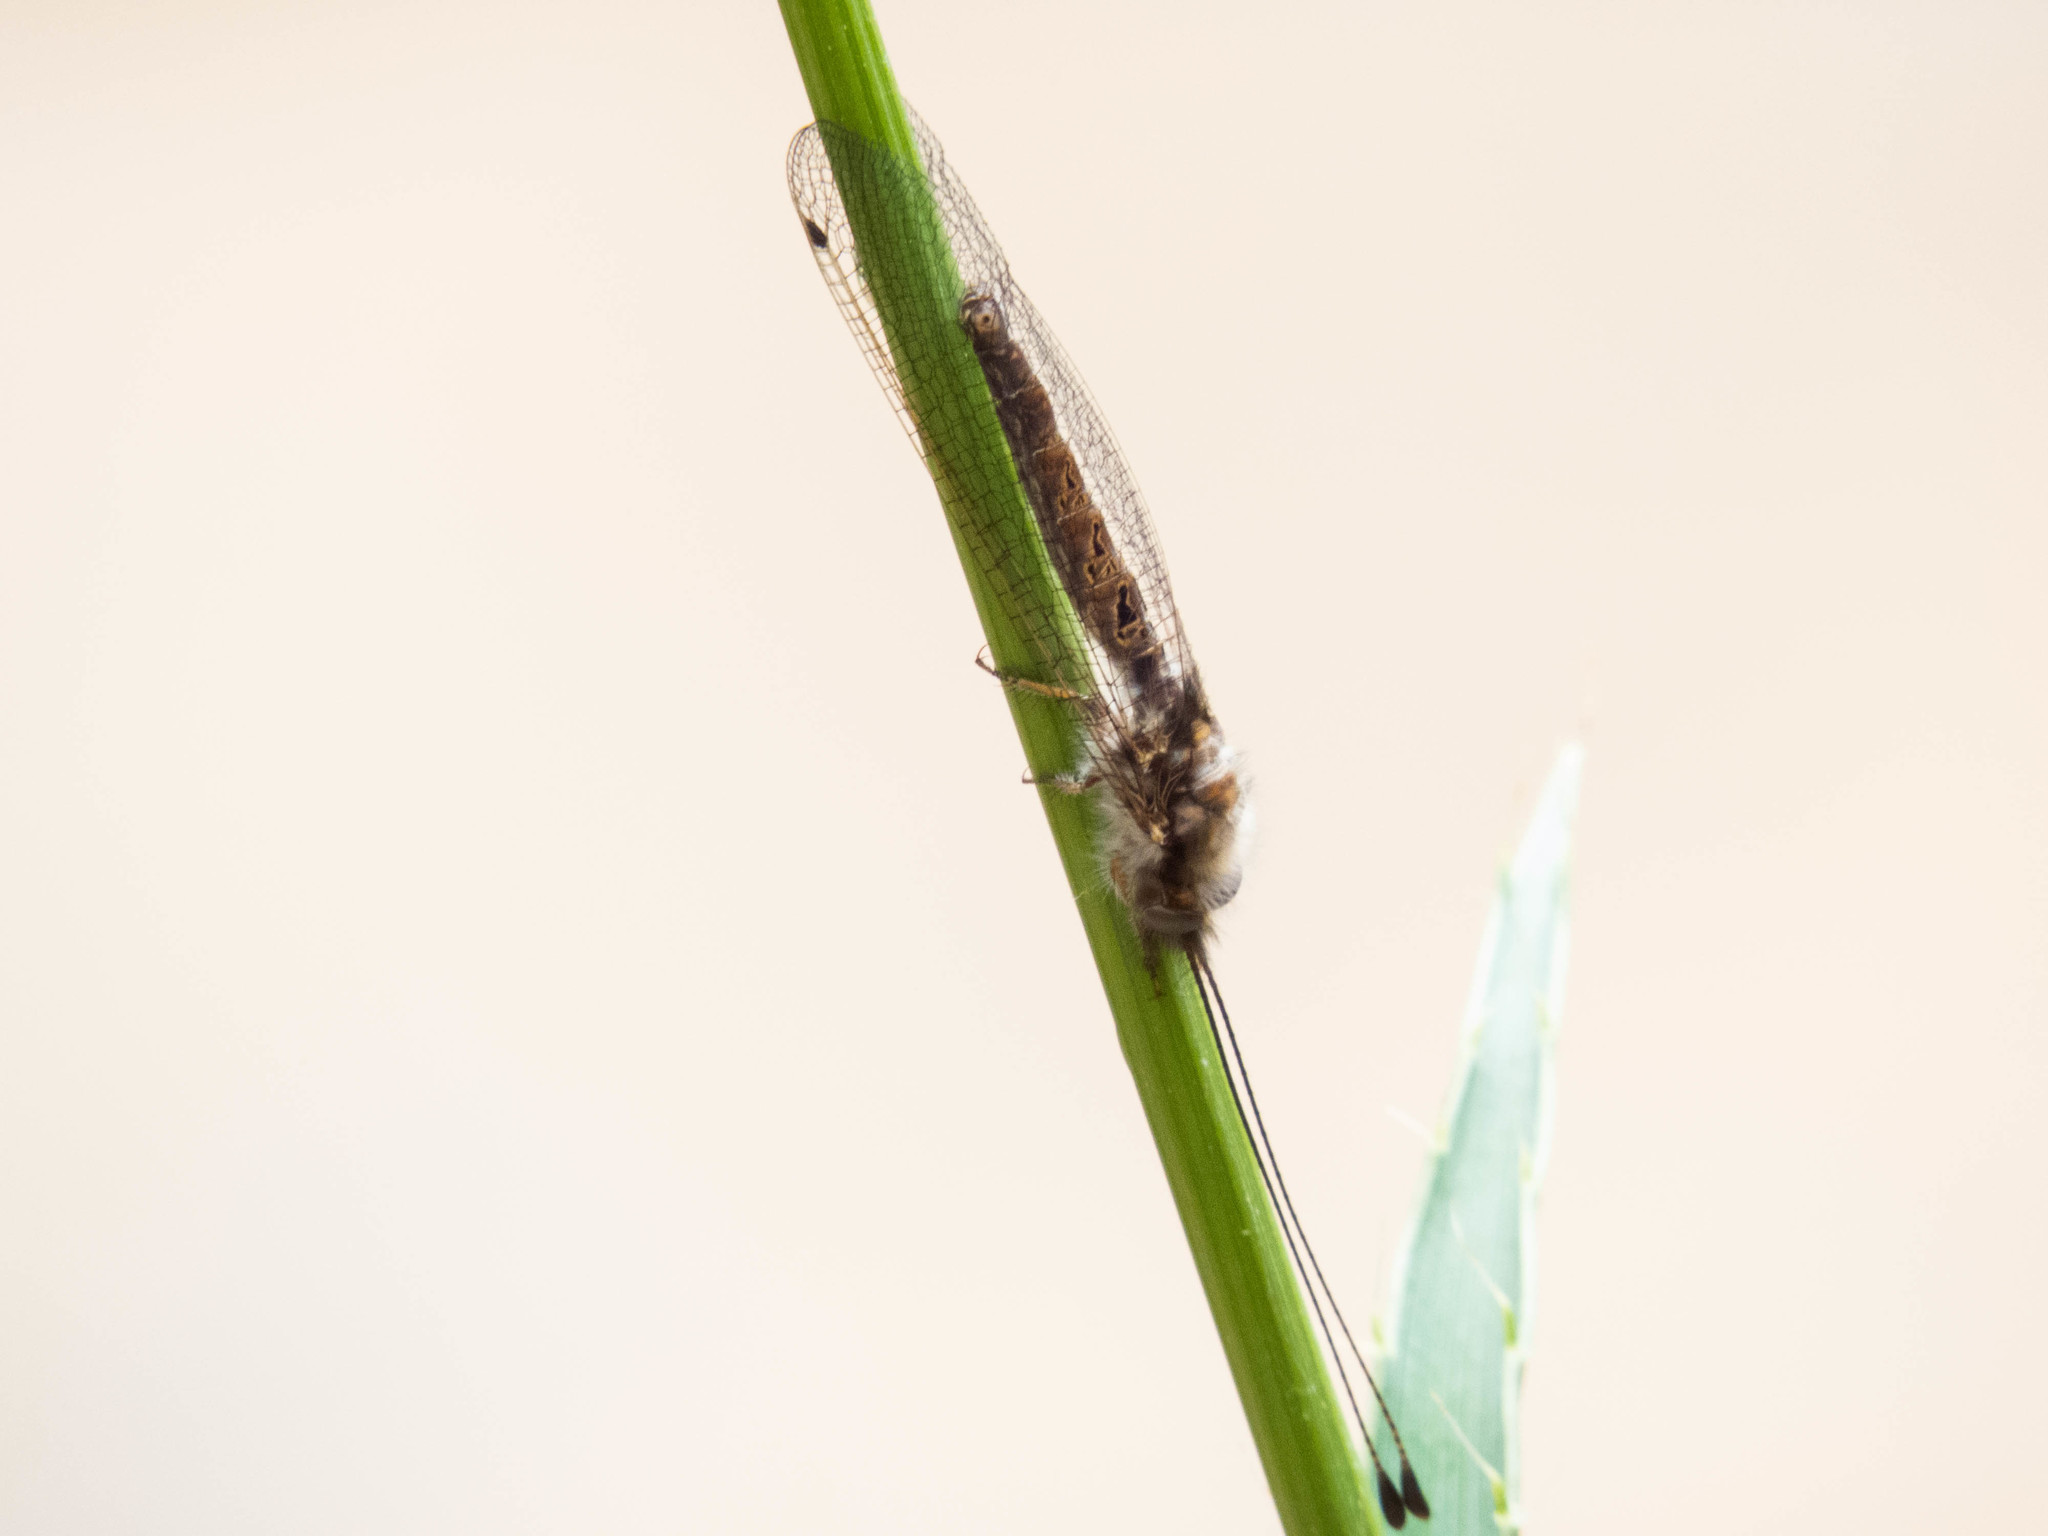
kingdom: Animalia
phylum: Arthropoda
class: Insecta
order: Neuroptera
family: Ascalaphidae
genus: Ululodes
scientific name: Ululodes macleayanus
